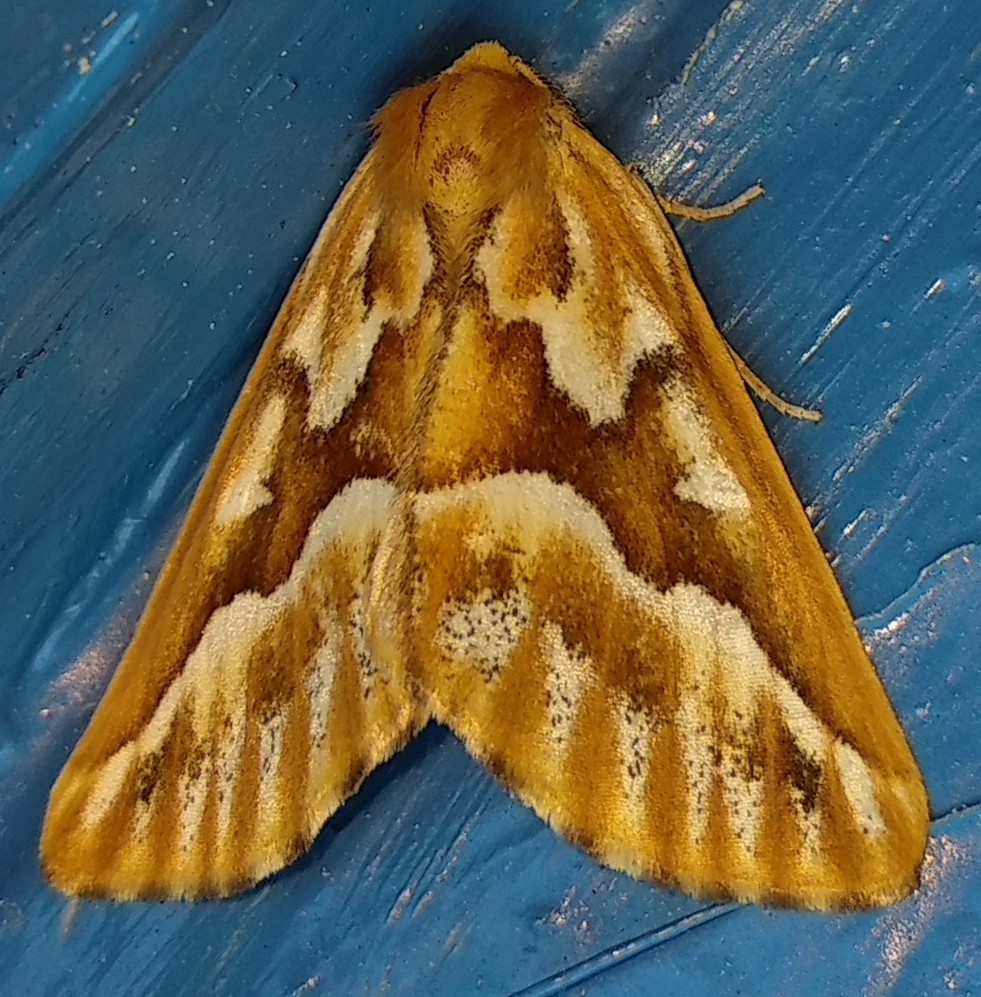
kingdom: Animalia
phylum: Arthropoda
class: Insecta
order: Lepidoptera
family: Geometridae
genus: Caripeta
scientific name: Caripeta piniata
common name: Northern pine looper moth
